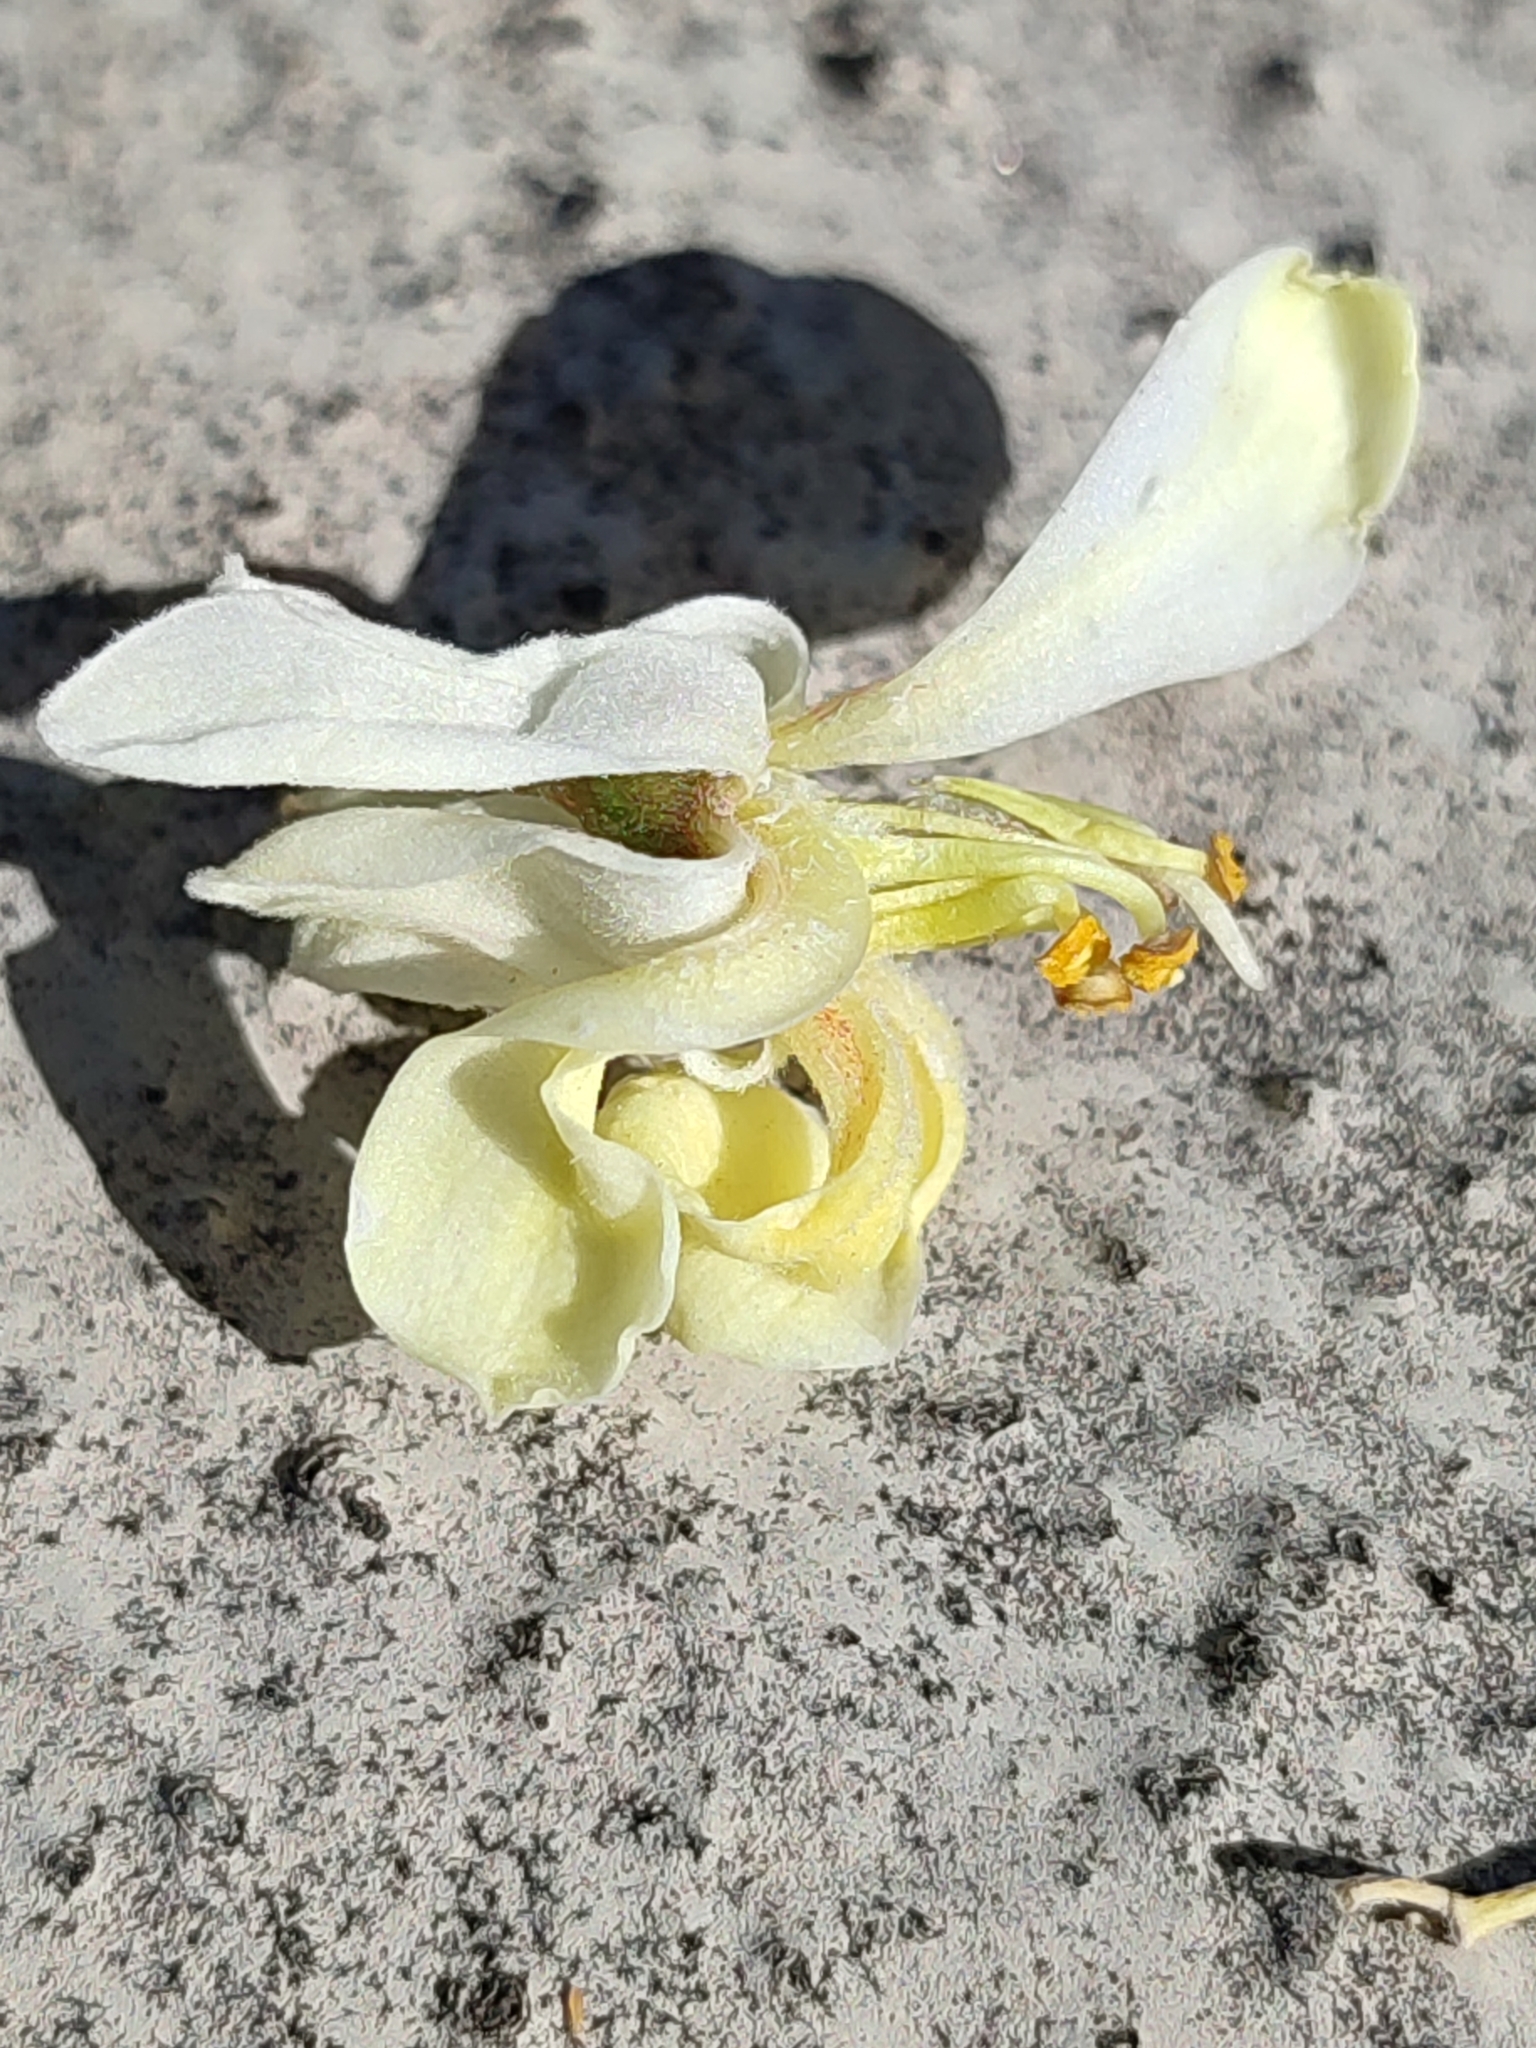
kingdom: Plantae
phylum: Tracheophyta
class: Magnoliopsida
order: Brassicales
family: Moringaceae
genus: Moringa
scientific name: Moringa oleifera
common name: Horseradish-tree
